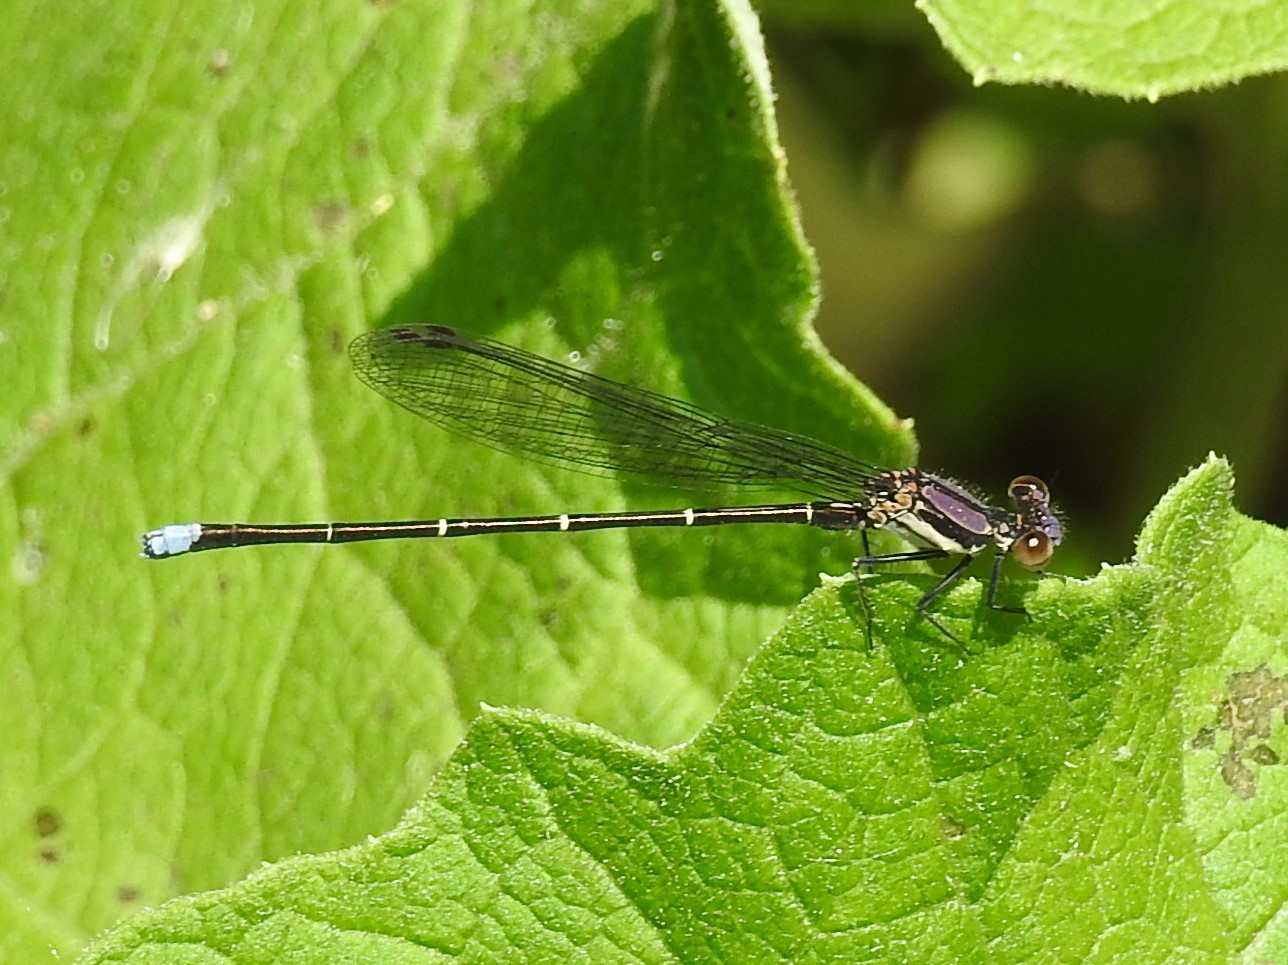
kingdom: Animalia
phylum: Arthropoda
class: Insecta
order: Odonata
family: Coenagrionidae
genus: Argia
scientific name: Argia tibialis
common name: Blue-tipped dancer
